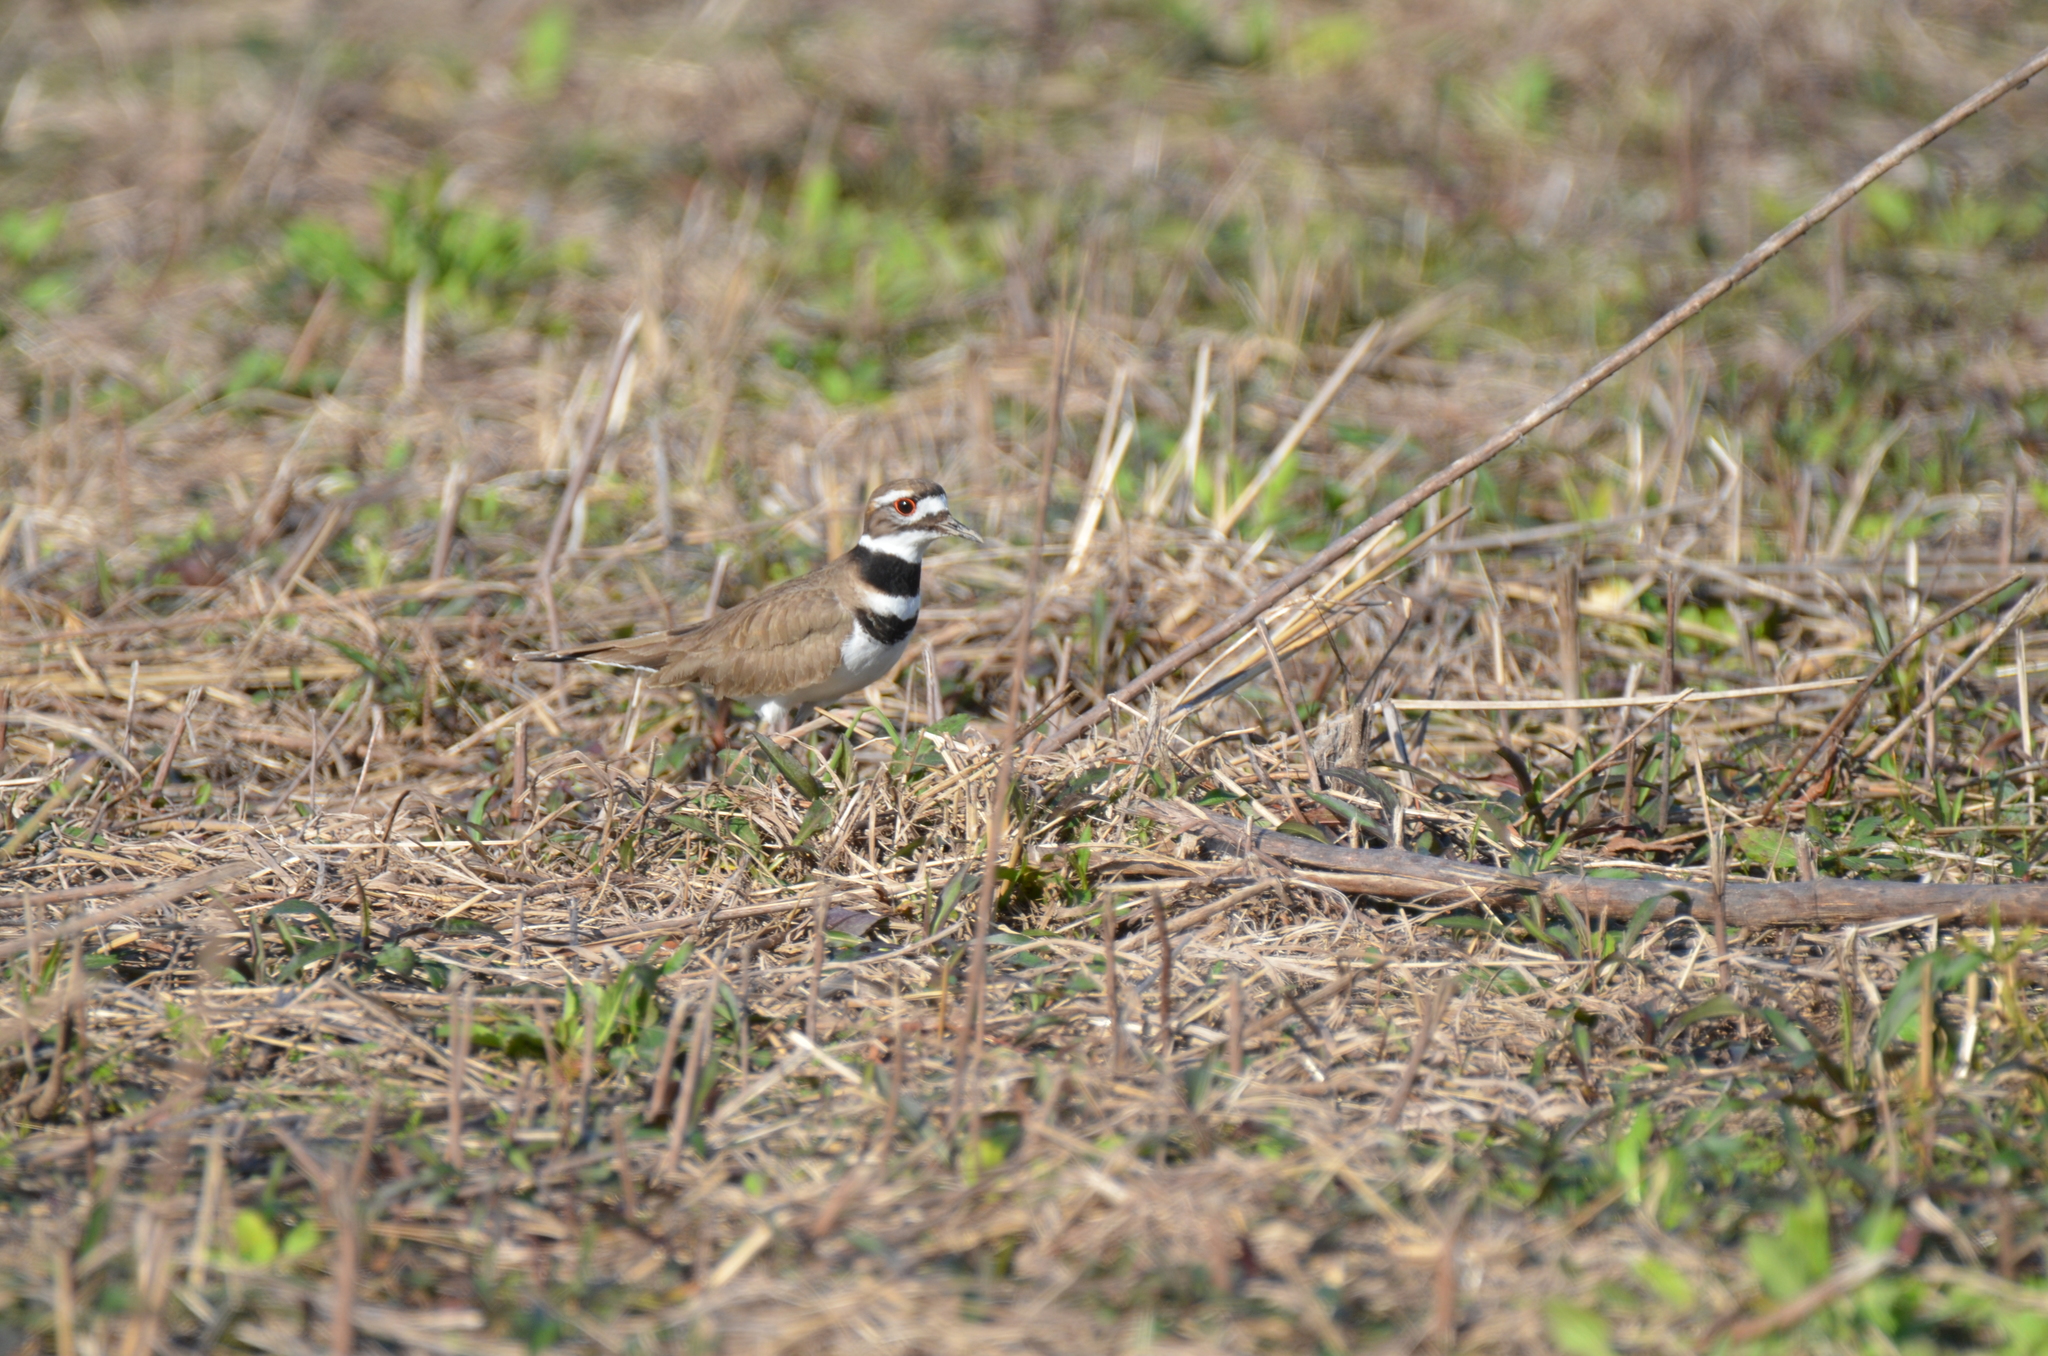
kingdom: Animalia
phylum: Chordata
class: Aves
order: Charadriiformes
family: Charadriidae
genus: Charadrius
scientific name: Charadrius vociferus
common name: Killdeer
